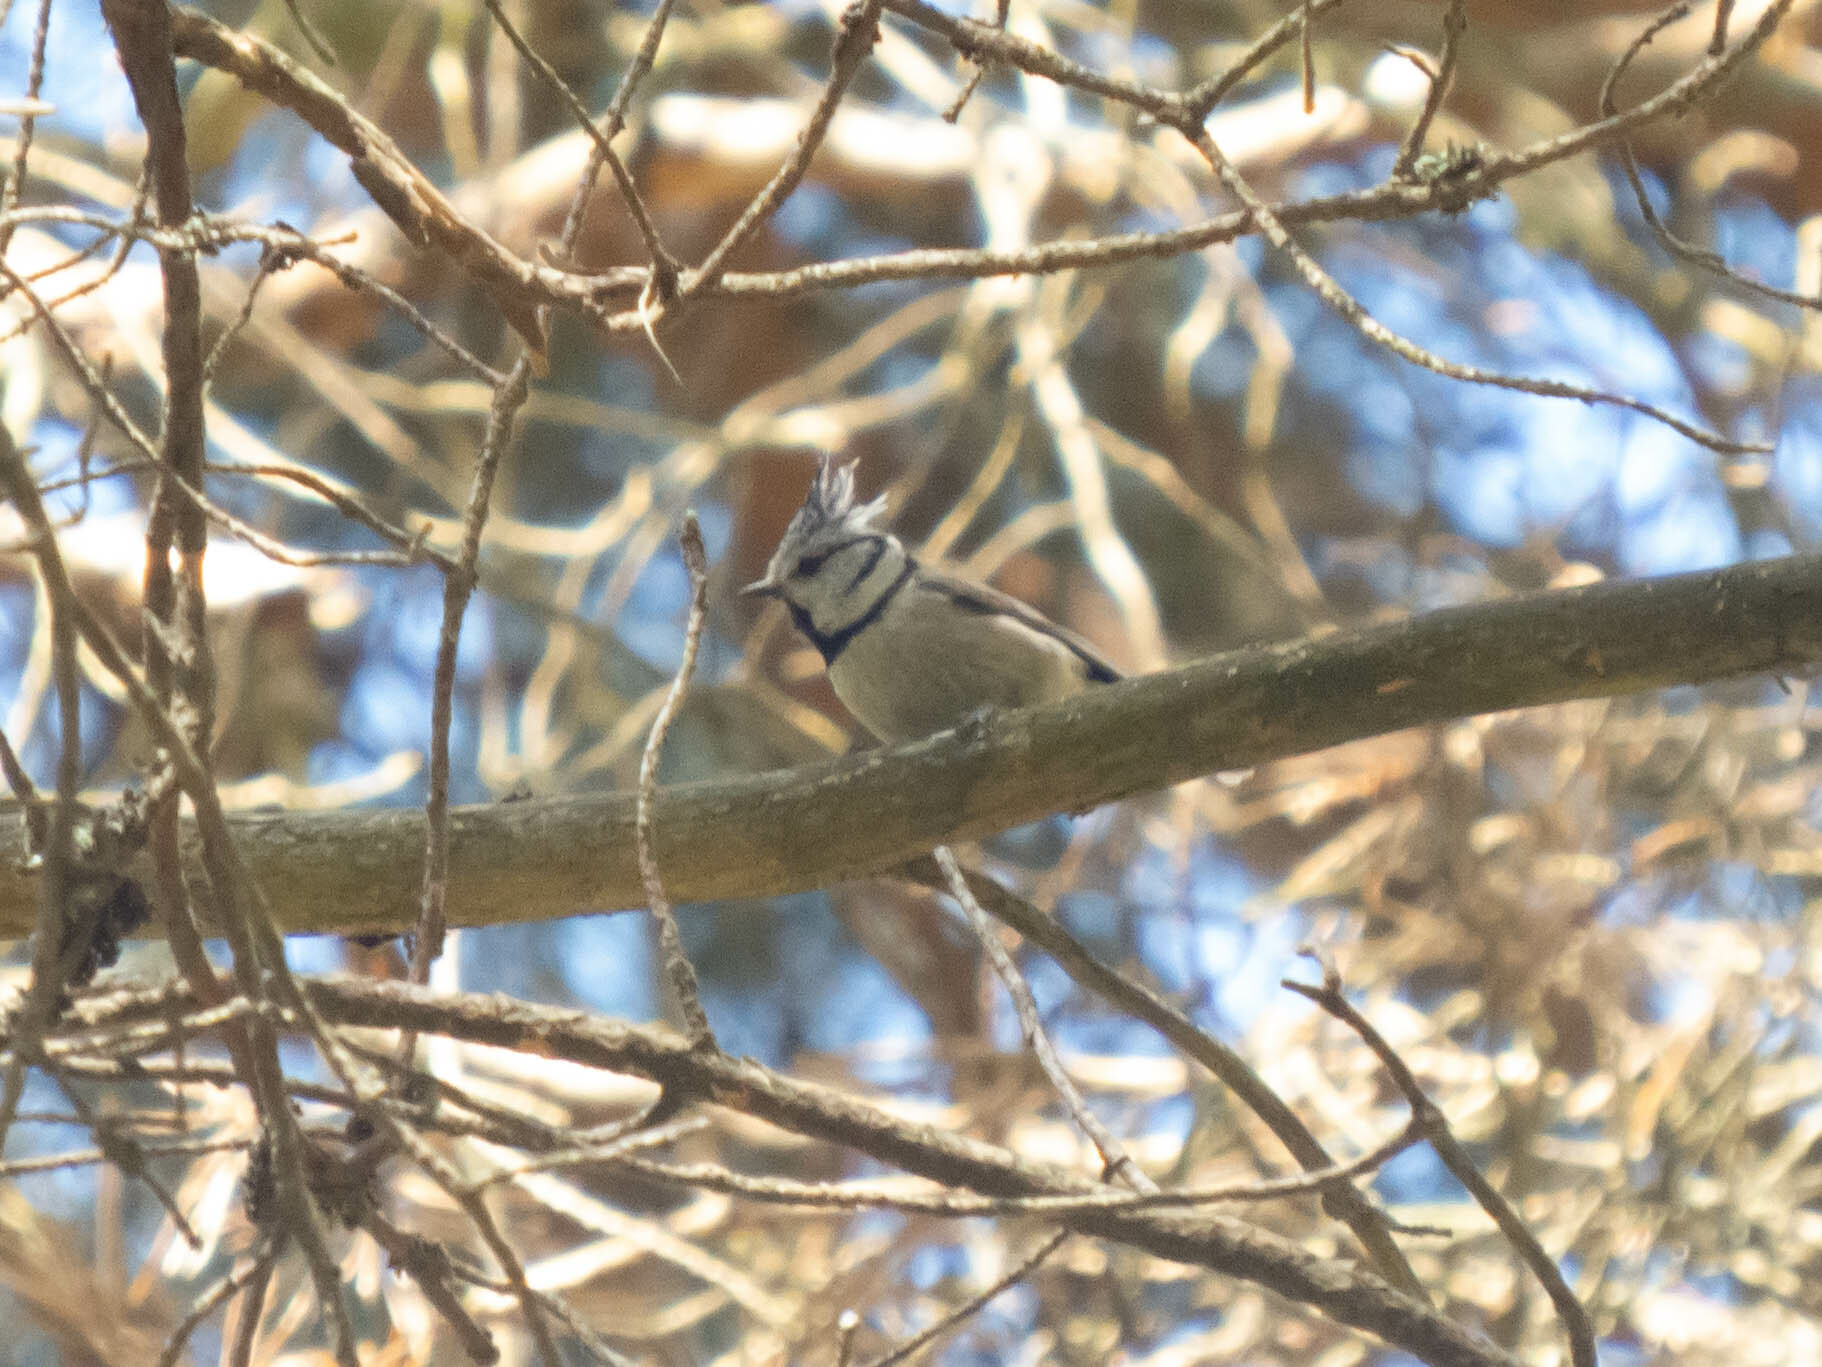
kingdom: Animalia
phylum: Chordata
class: Aves
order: Passeriformes
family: Paridae
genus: Lophophanes
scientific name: Lophophanes cristatus
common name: European crested tit
